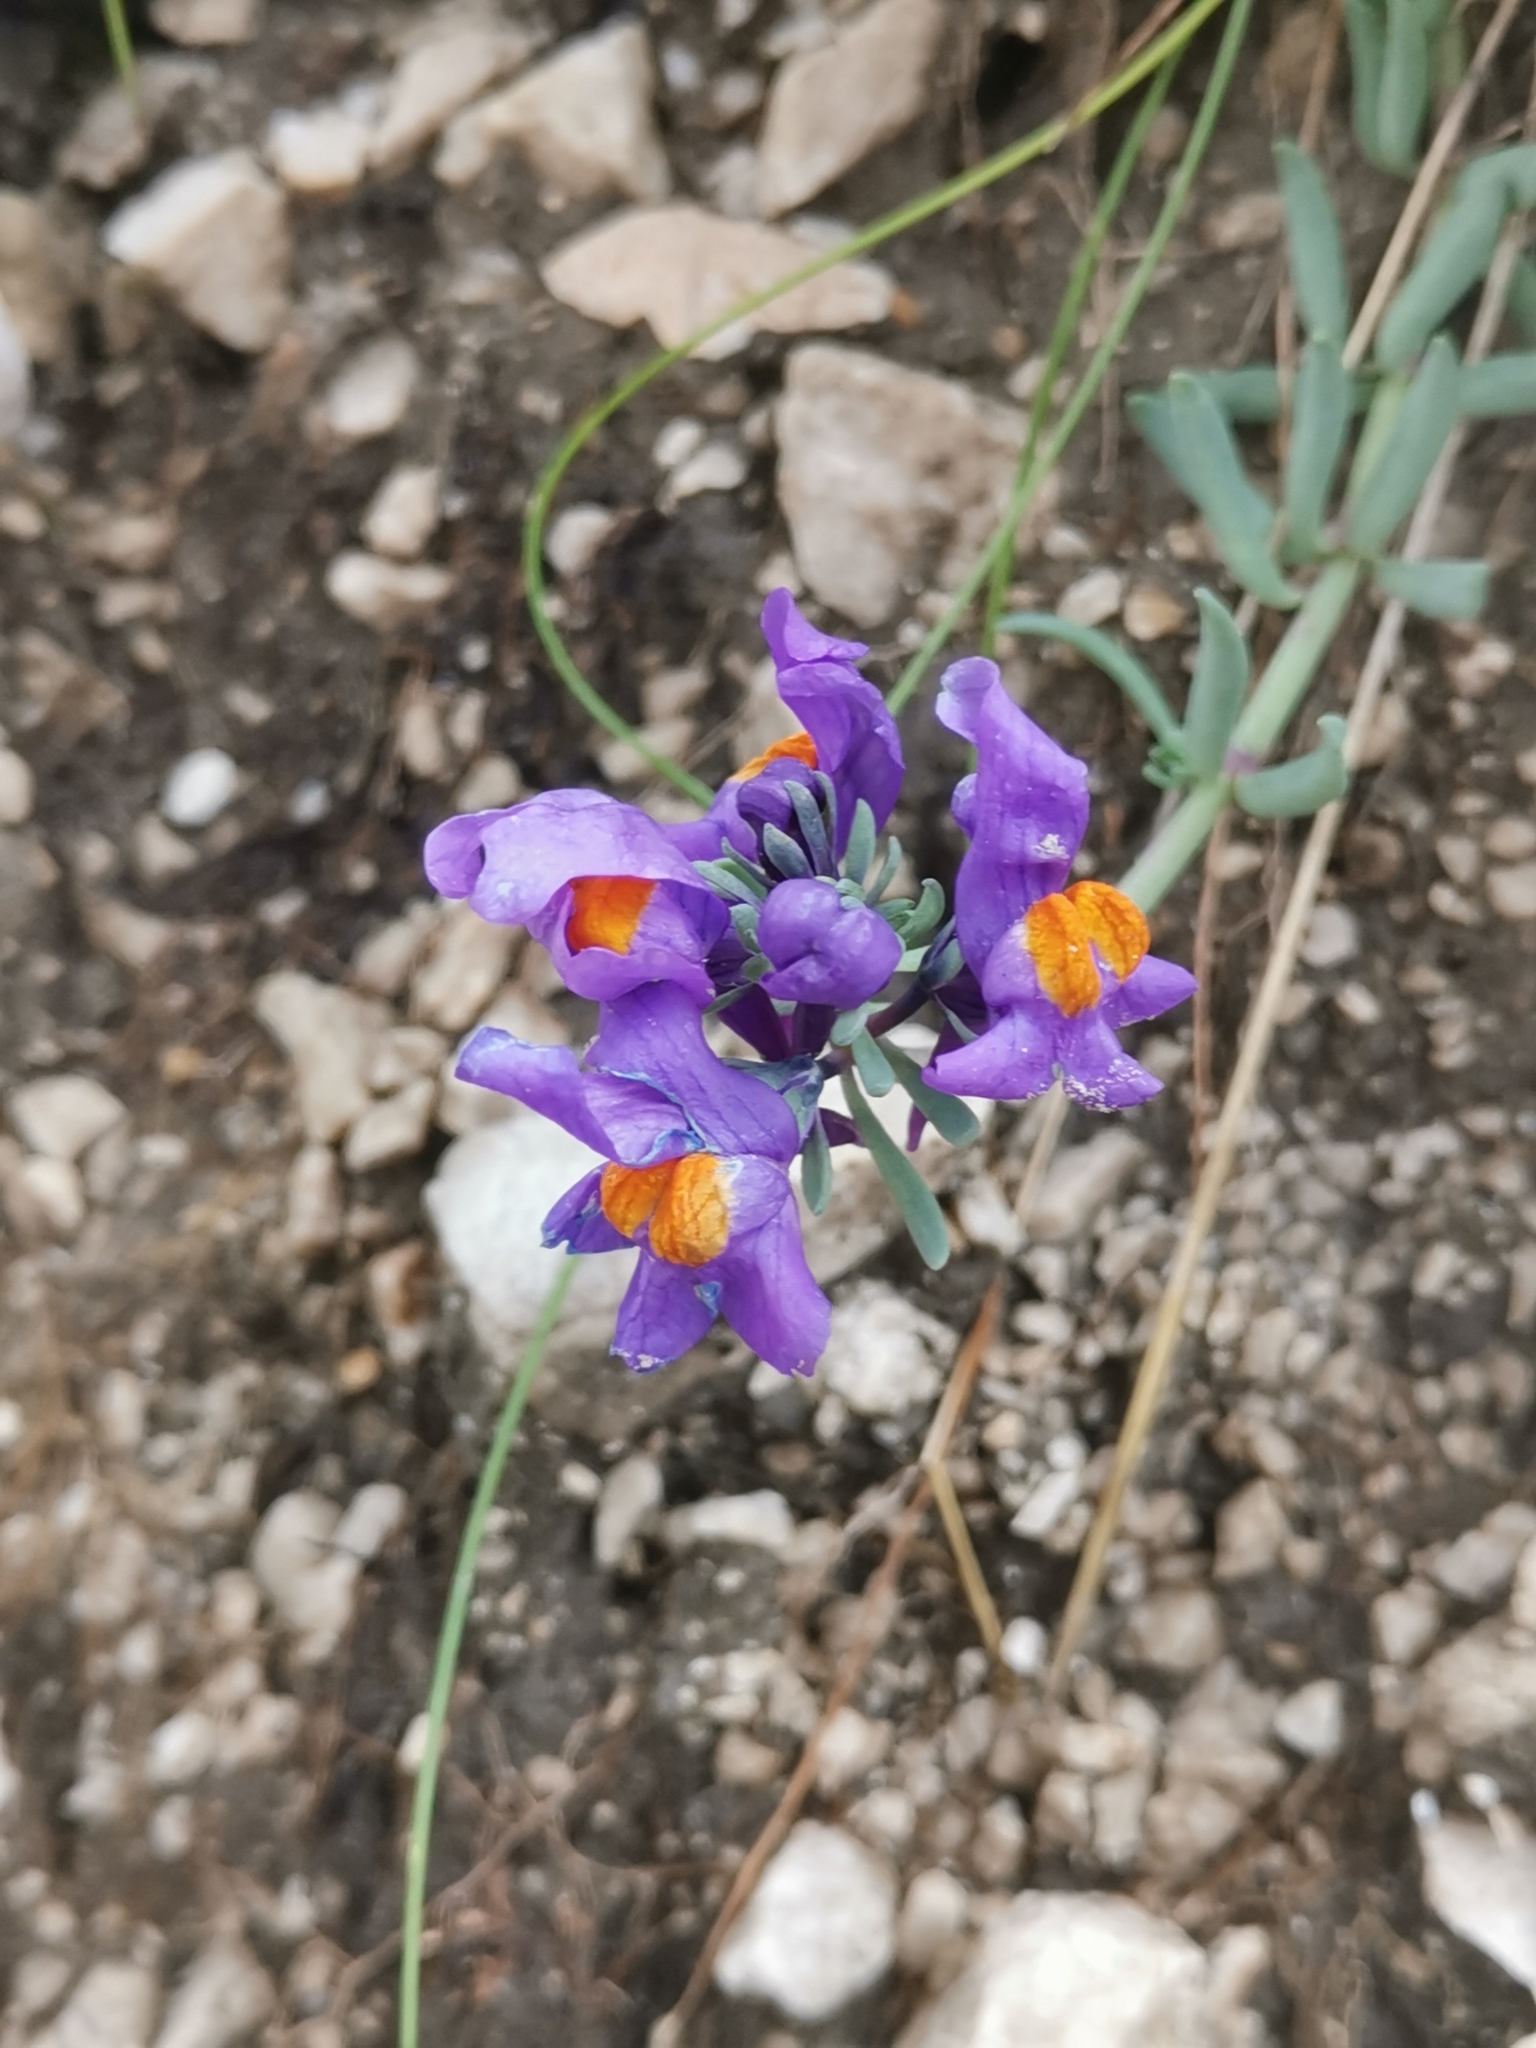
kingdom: Plantae
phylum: Tracheophyta
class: Magnoliopsida
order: Lamiales
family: Plantaginaceae
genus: Linaria
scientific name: Linaria alpina
